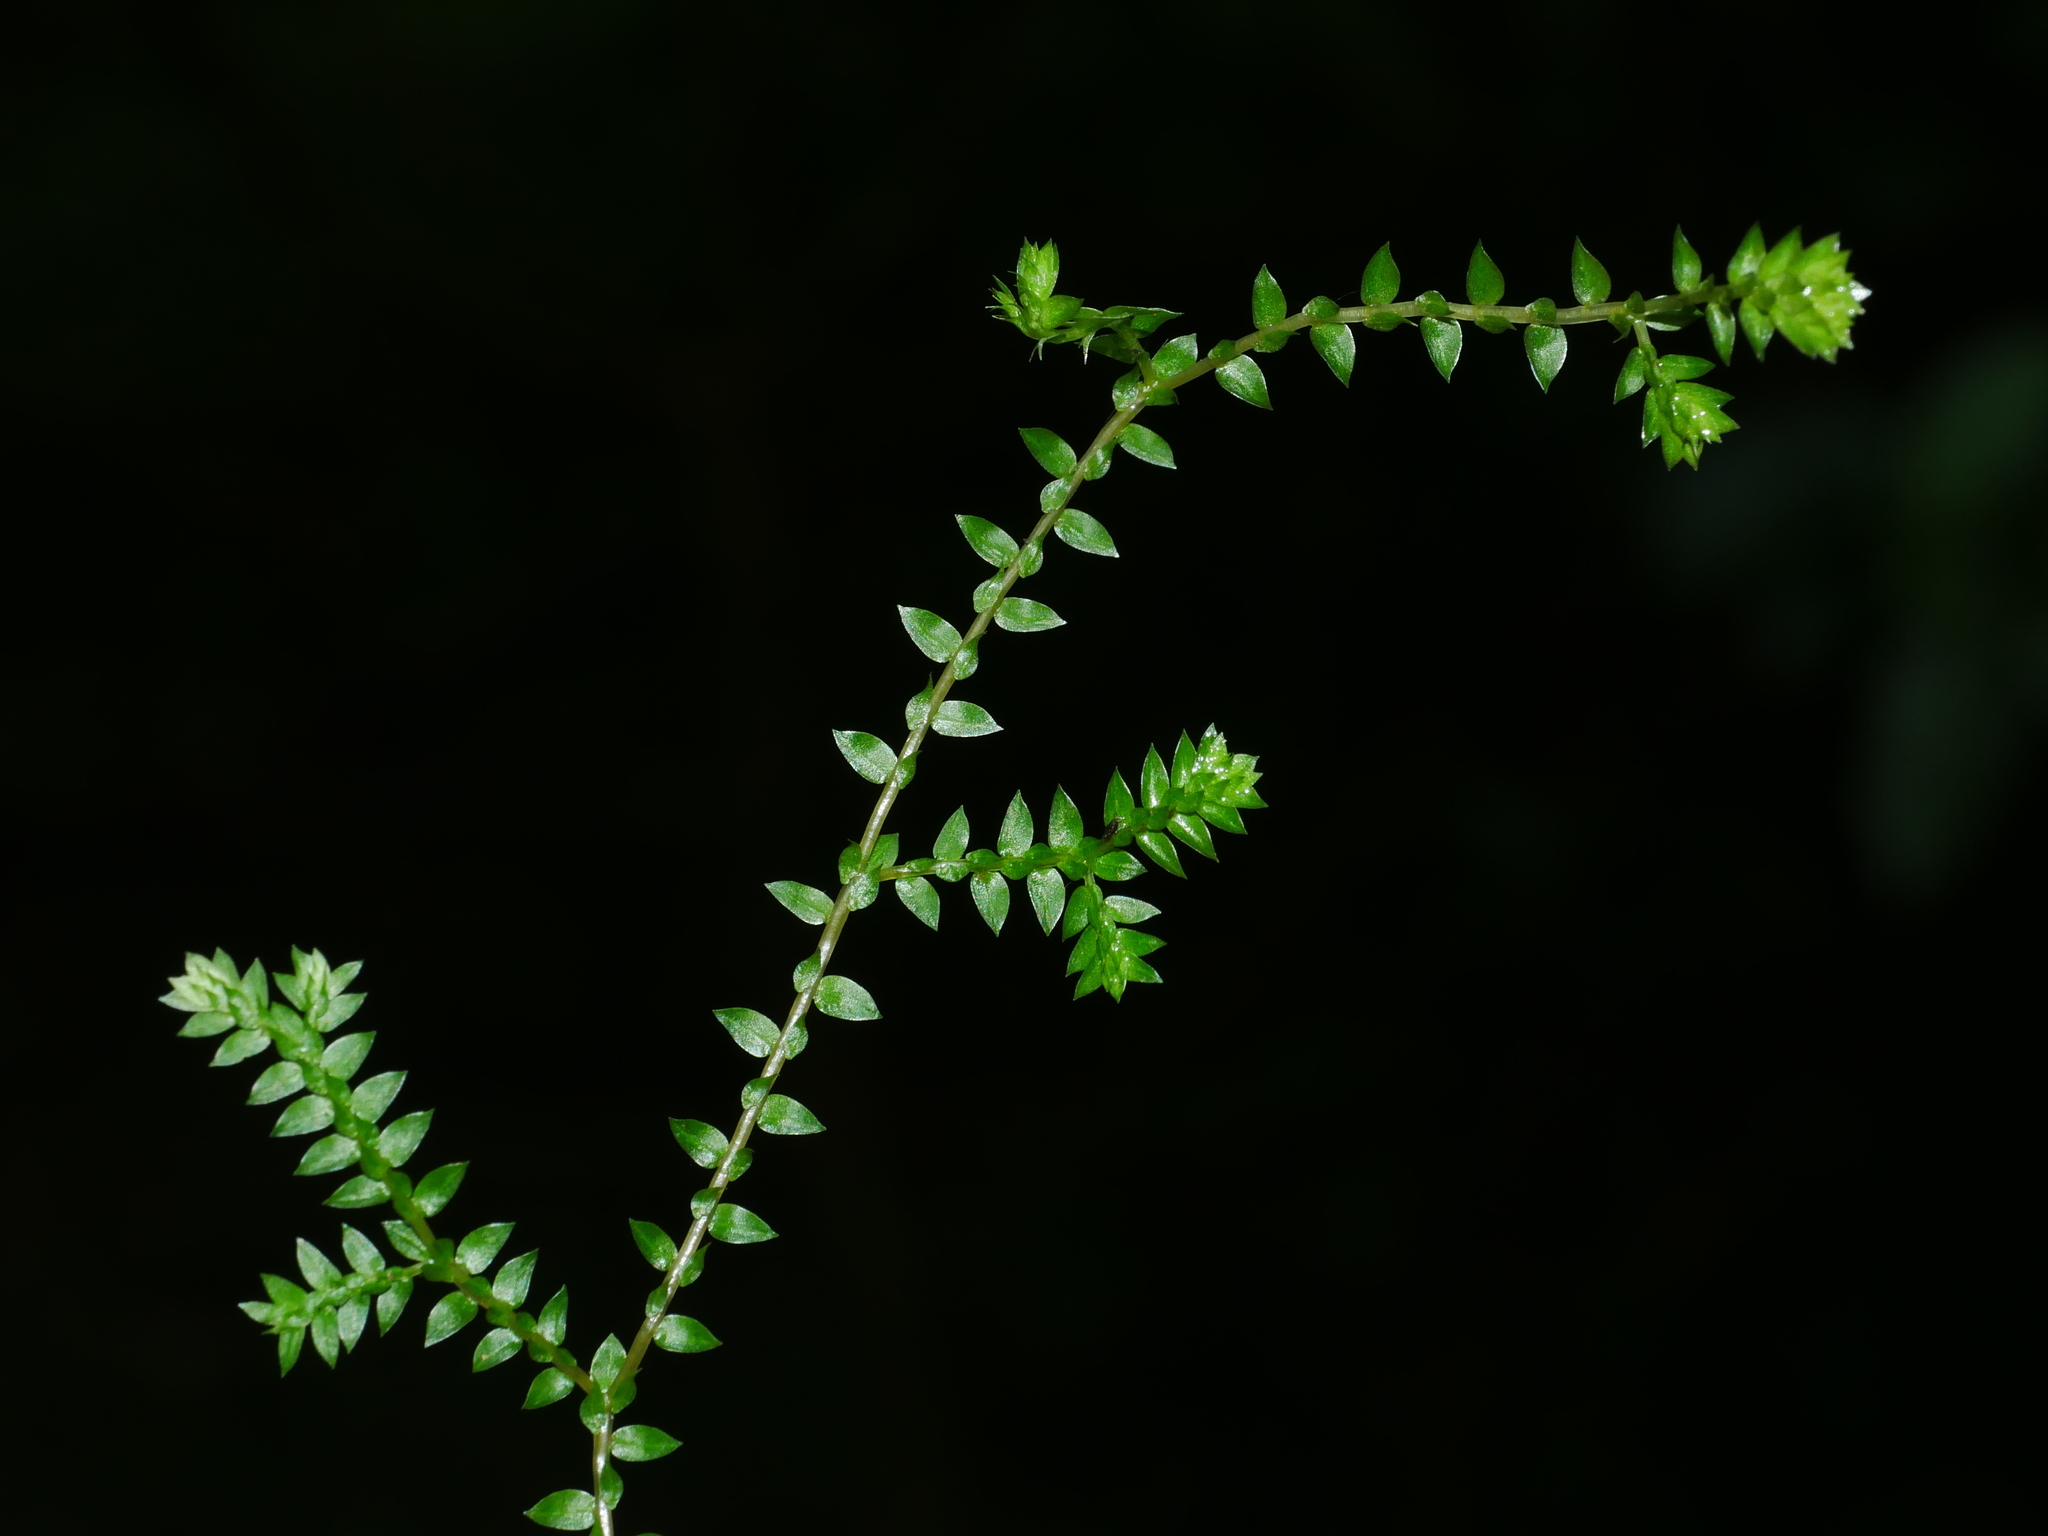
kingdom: Plantae
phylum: Tracheophyta
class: Lycopodiopsida
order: Selaginellales
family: Selaginellaceae
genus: Selaginella
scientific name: Selaginella remotifolia
